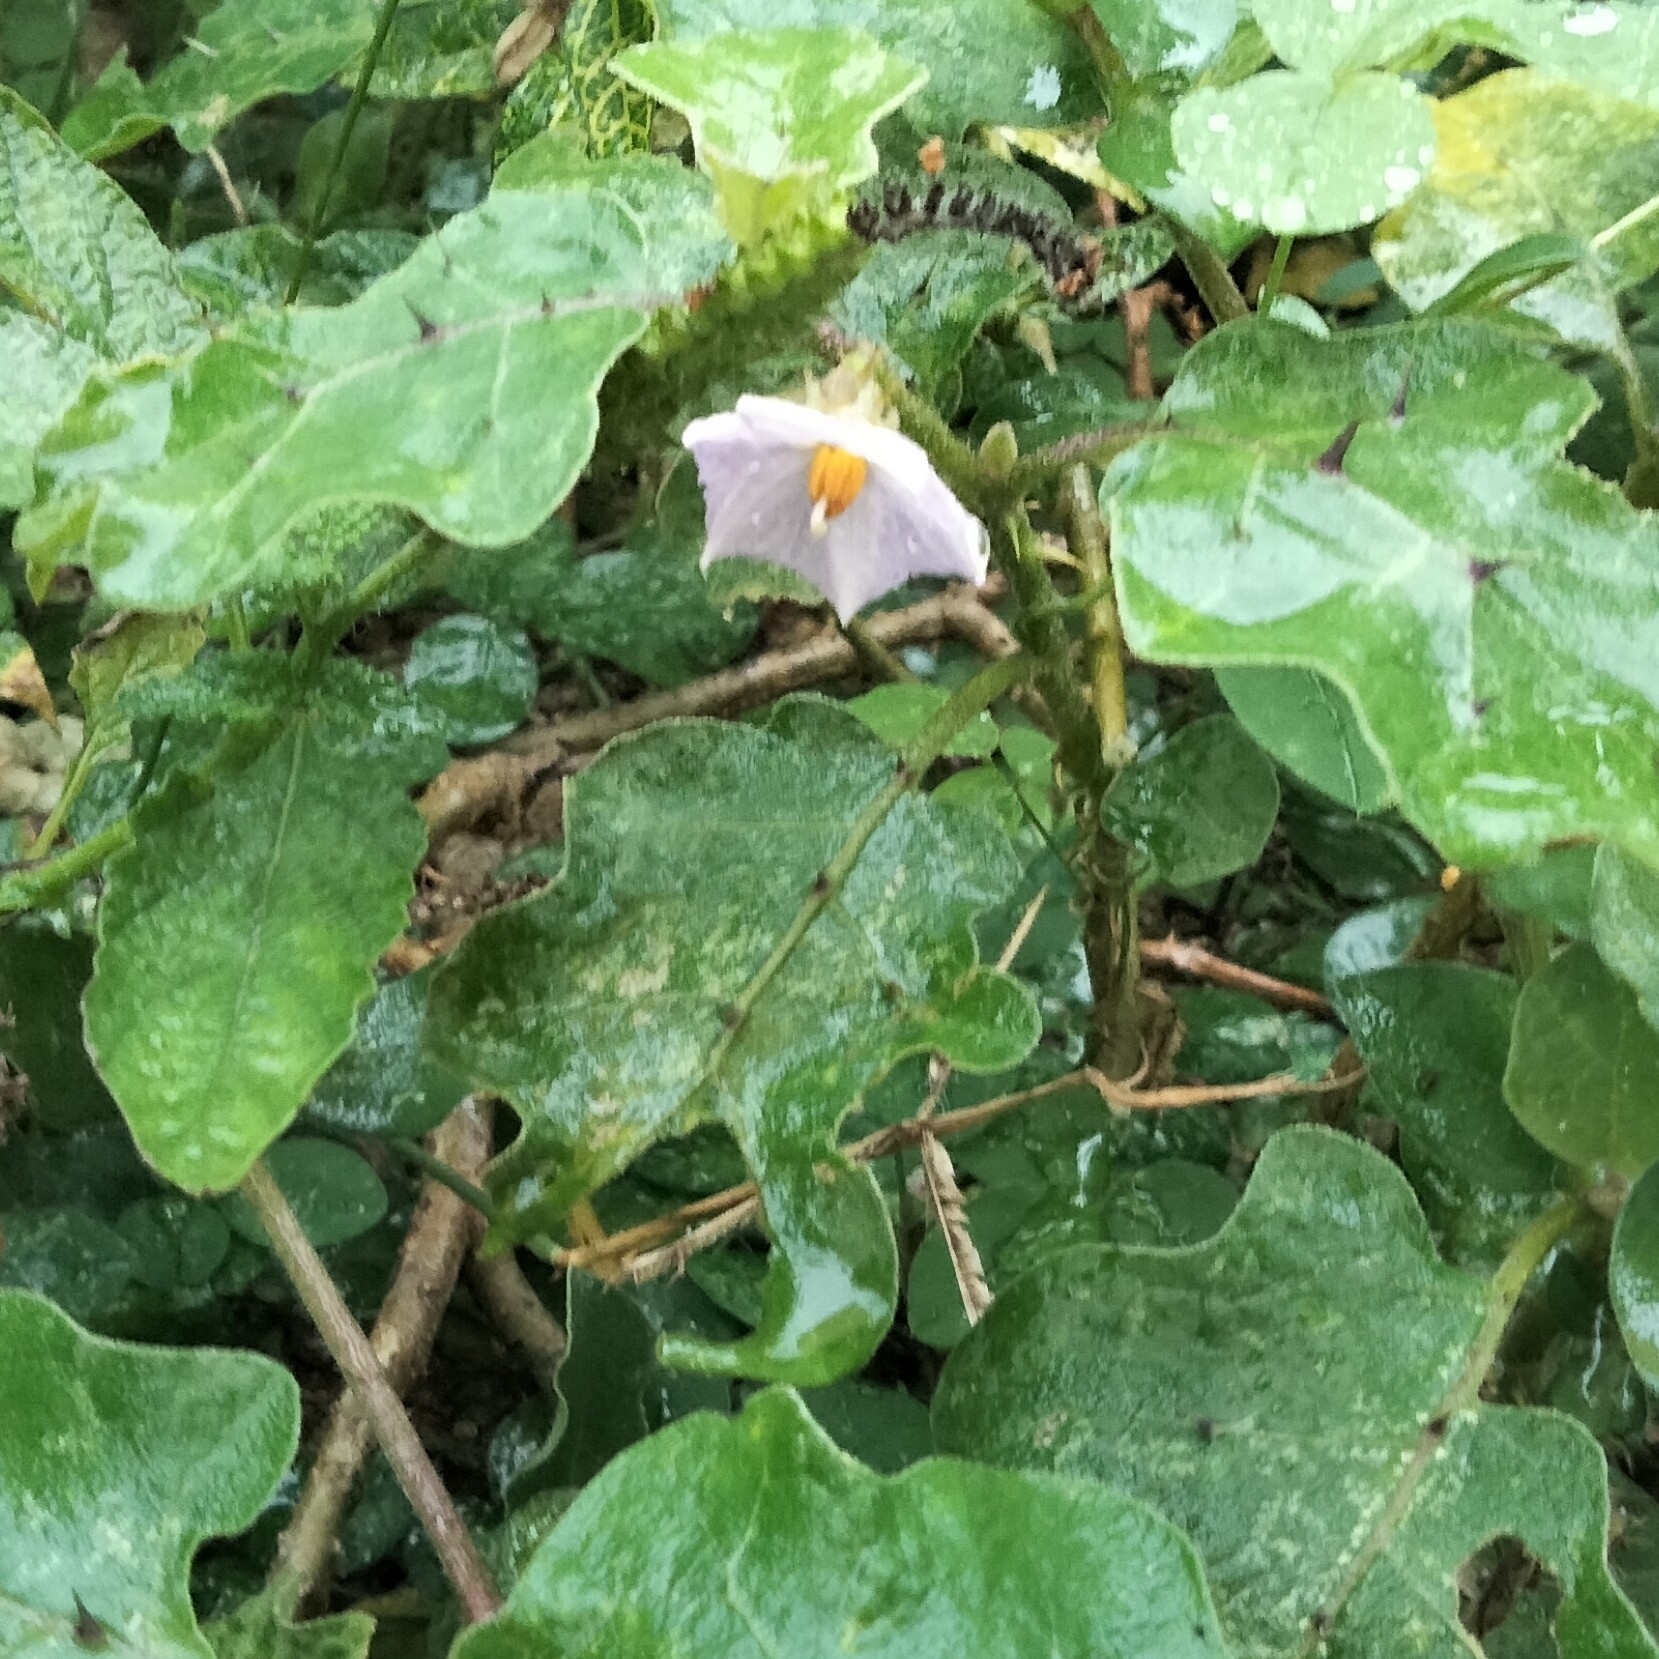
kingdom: Plantae
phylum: Tracheophyta
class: Magnoliopsida
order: Solanales
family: Solanaceae
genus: Solanum
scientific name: Solanum insanum
